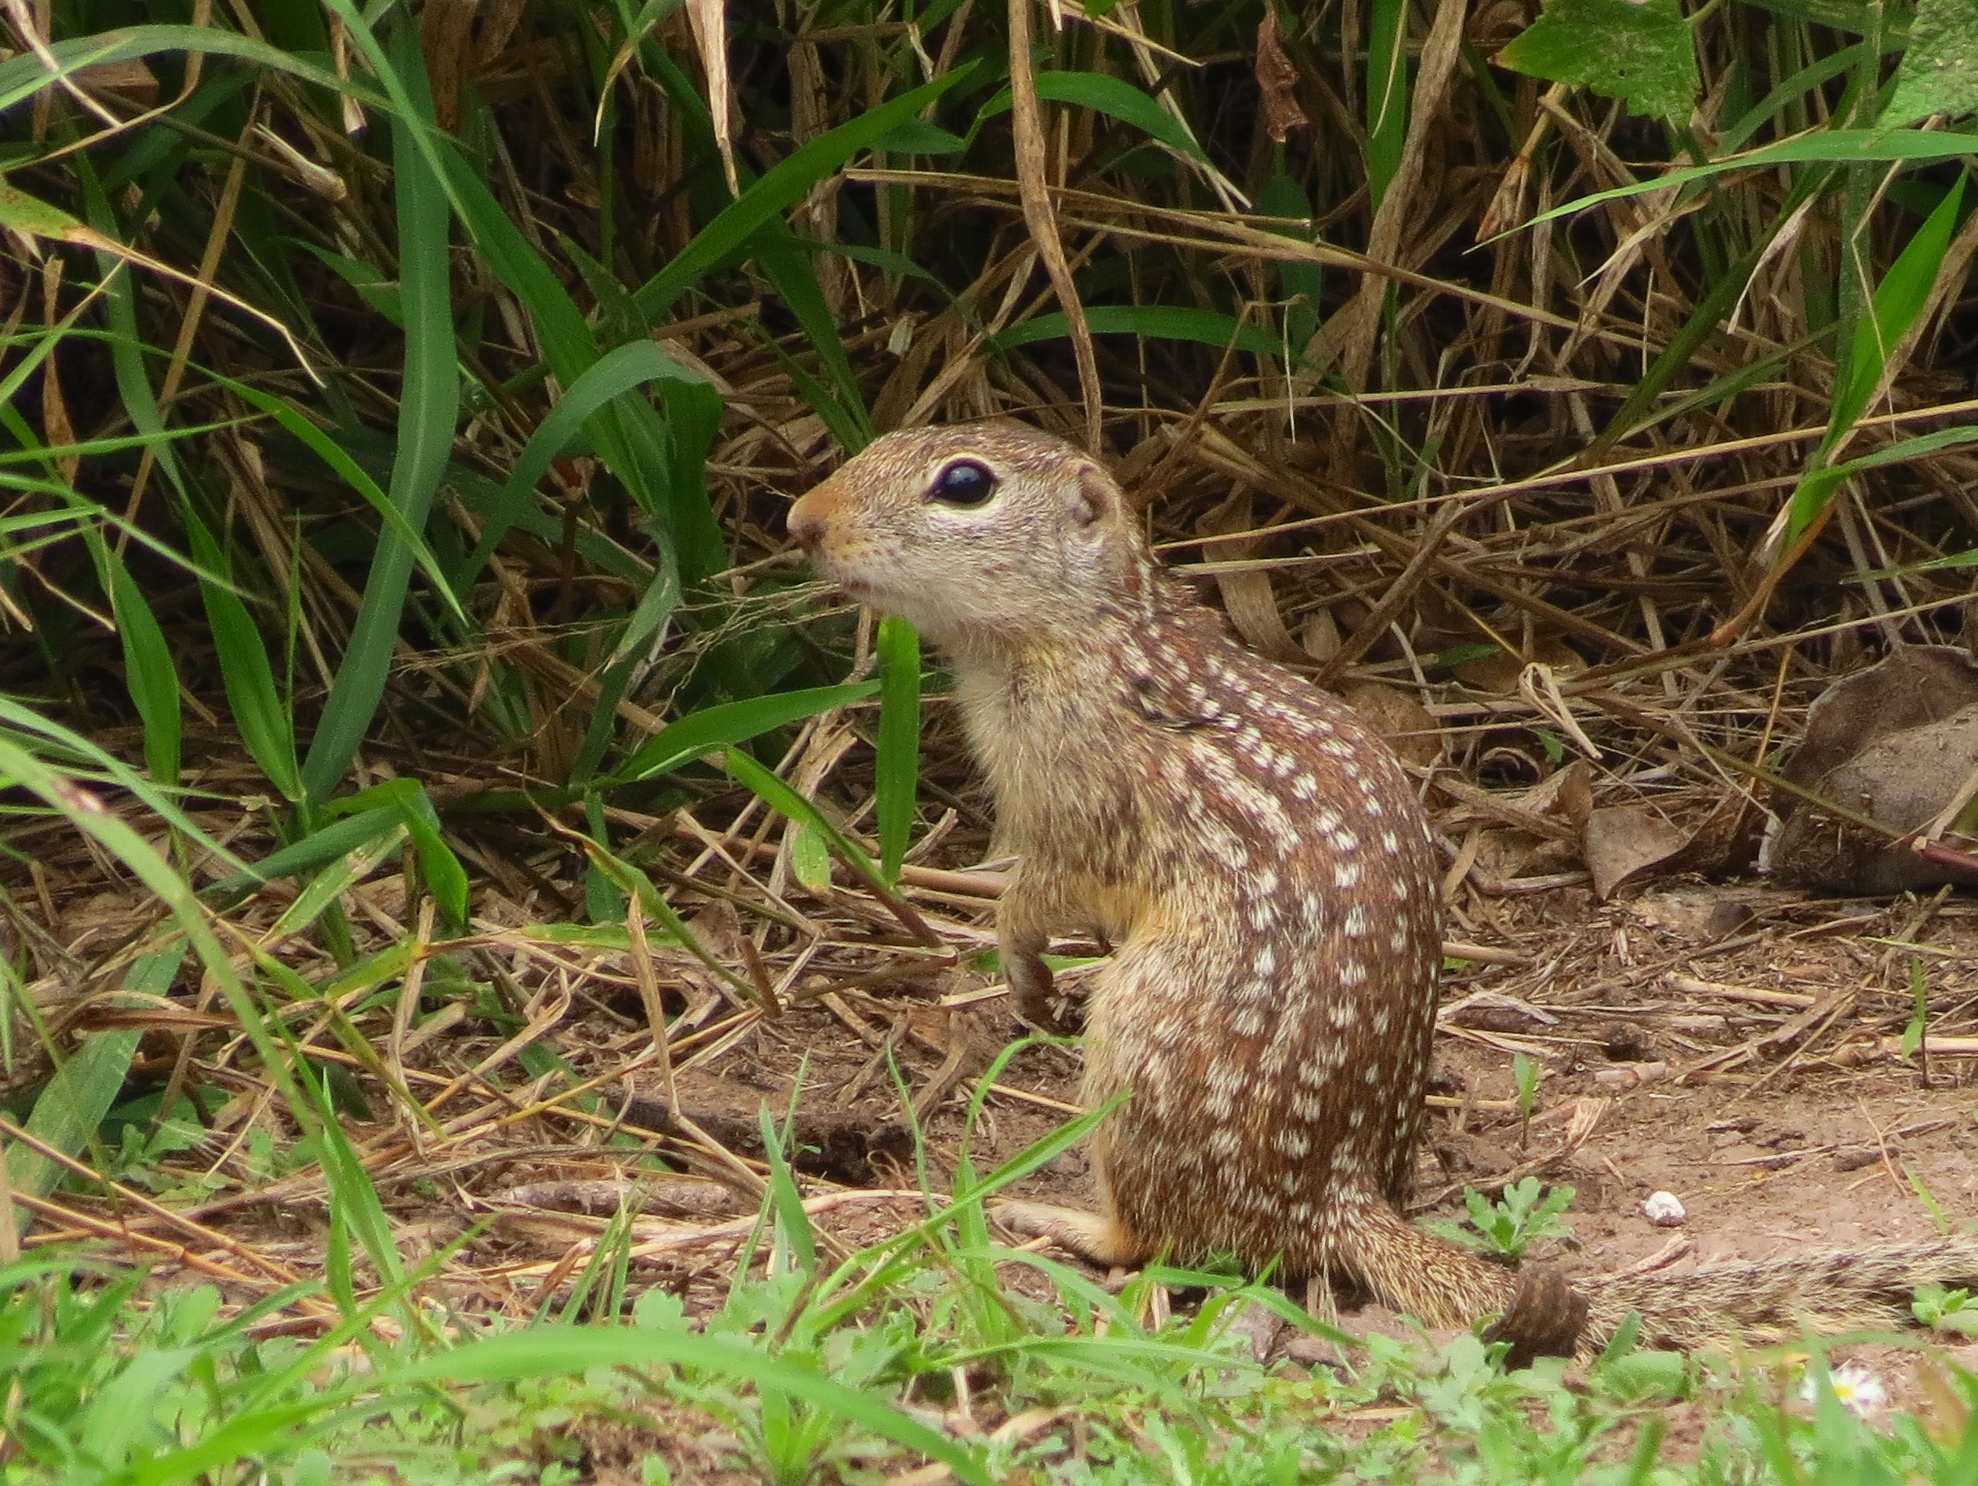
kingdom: Animalia
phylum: Chordata
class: Mammalia
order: Rodentia
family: Sciuridae
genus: Ictidomys
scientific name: Ictidomys parvidens
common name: Rio grande ground squirrel
